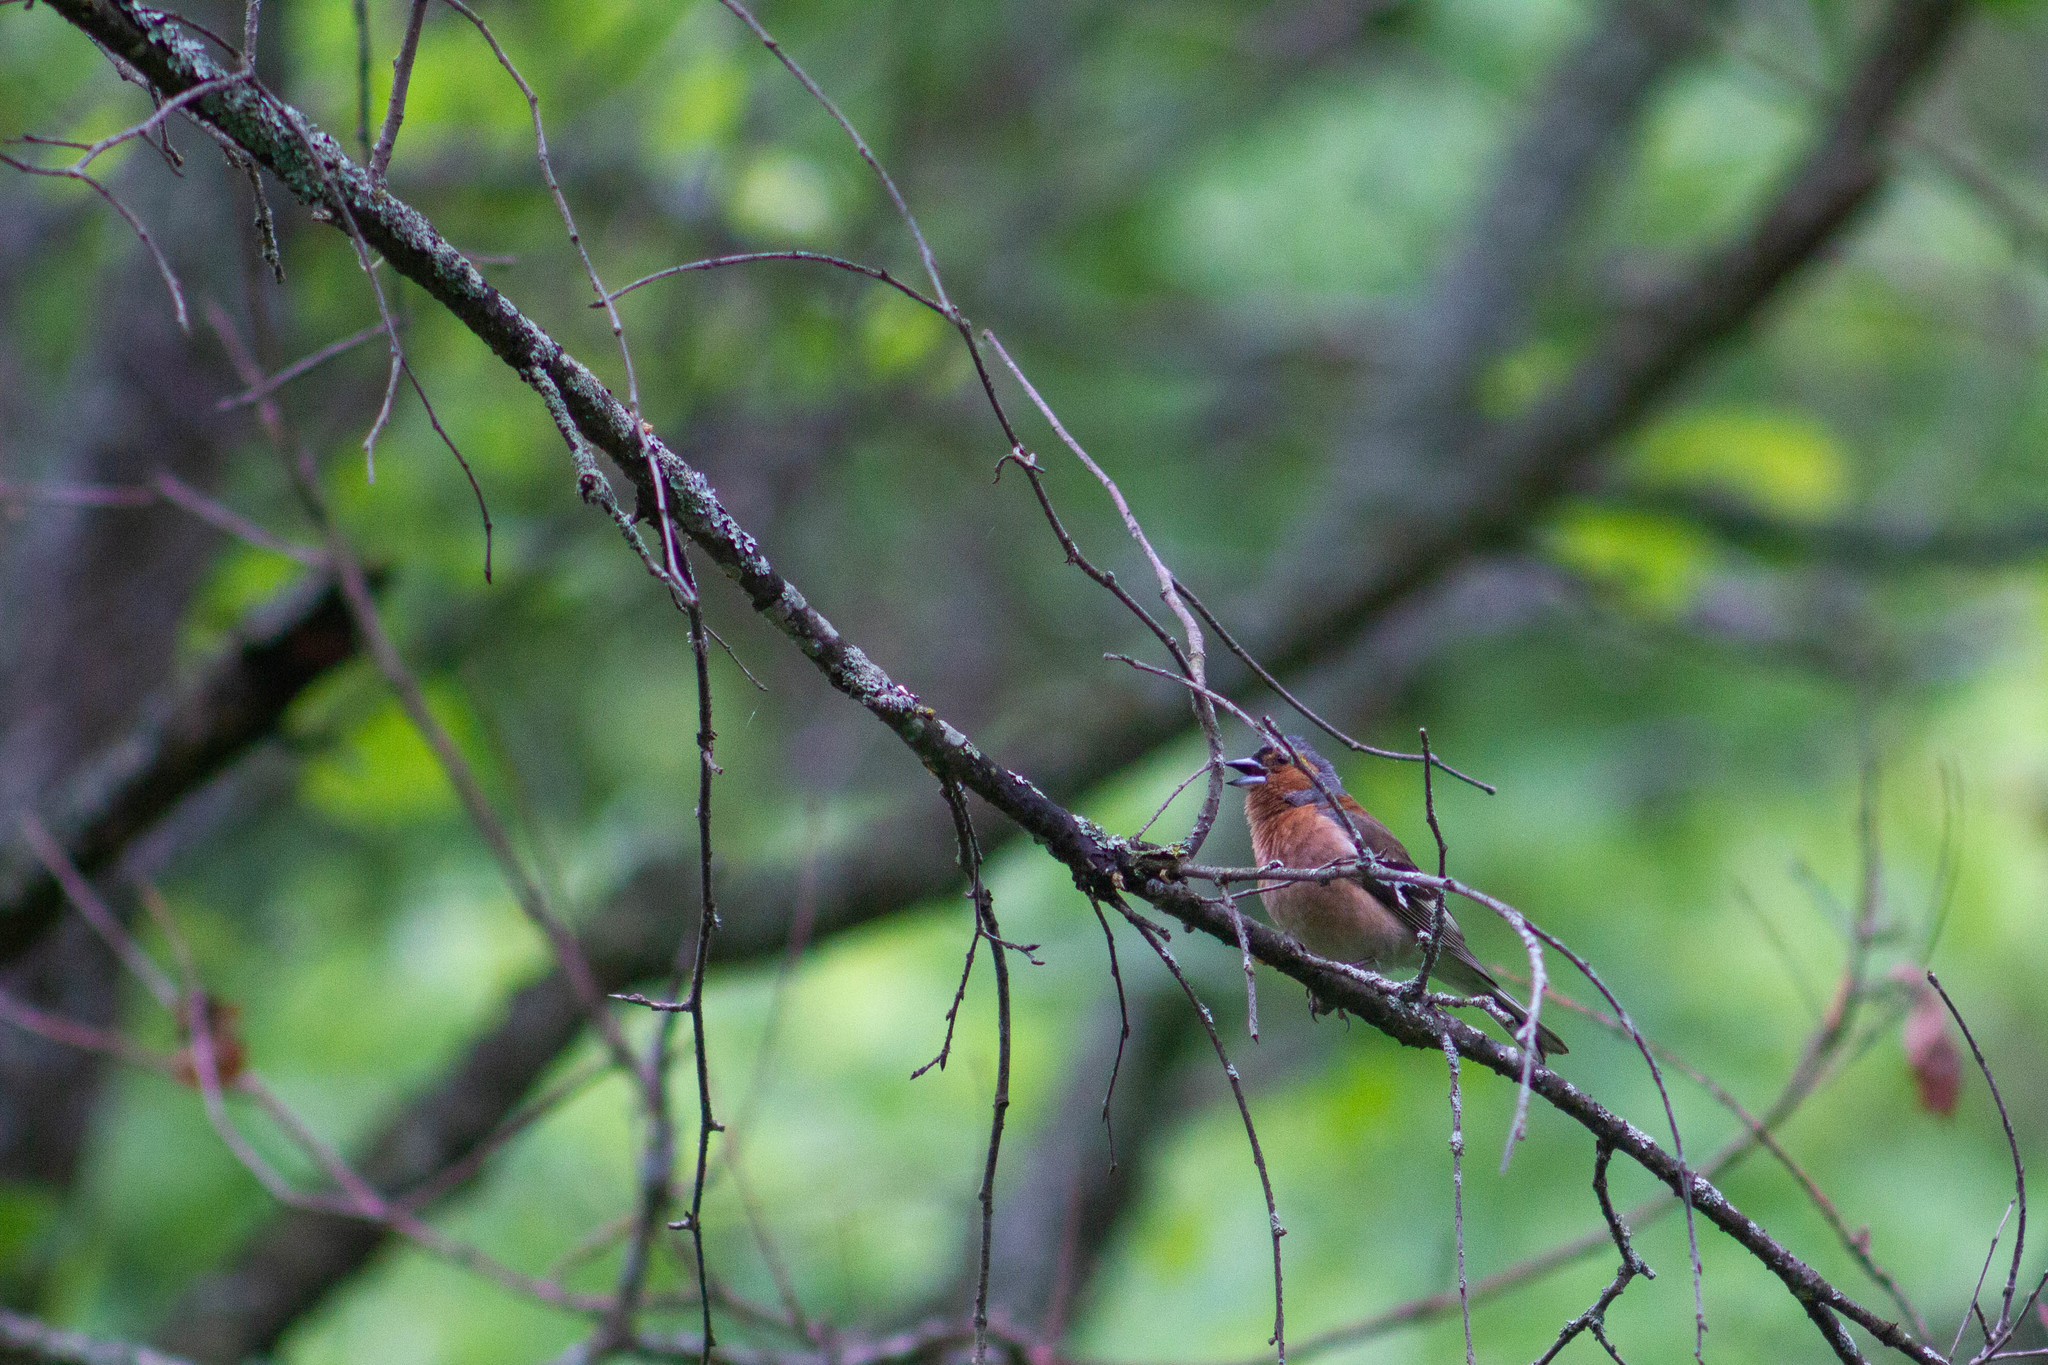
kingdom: Animalia
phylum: Chordata
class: Aves
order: Passeriformes
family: Fringillidae
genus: Fringilla
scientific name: Fringilla coelebs
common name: Common chaffinch
